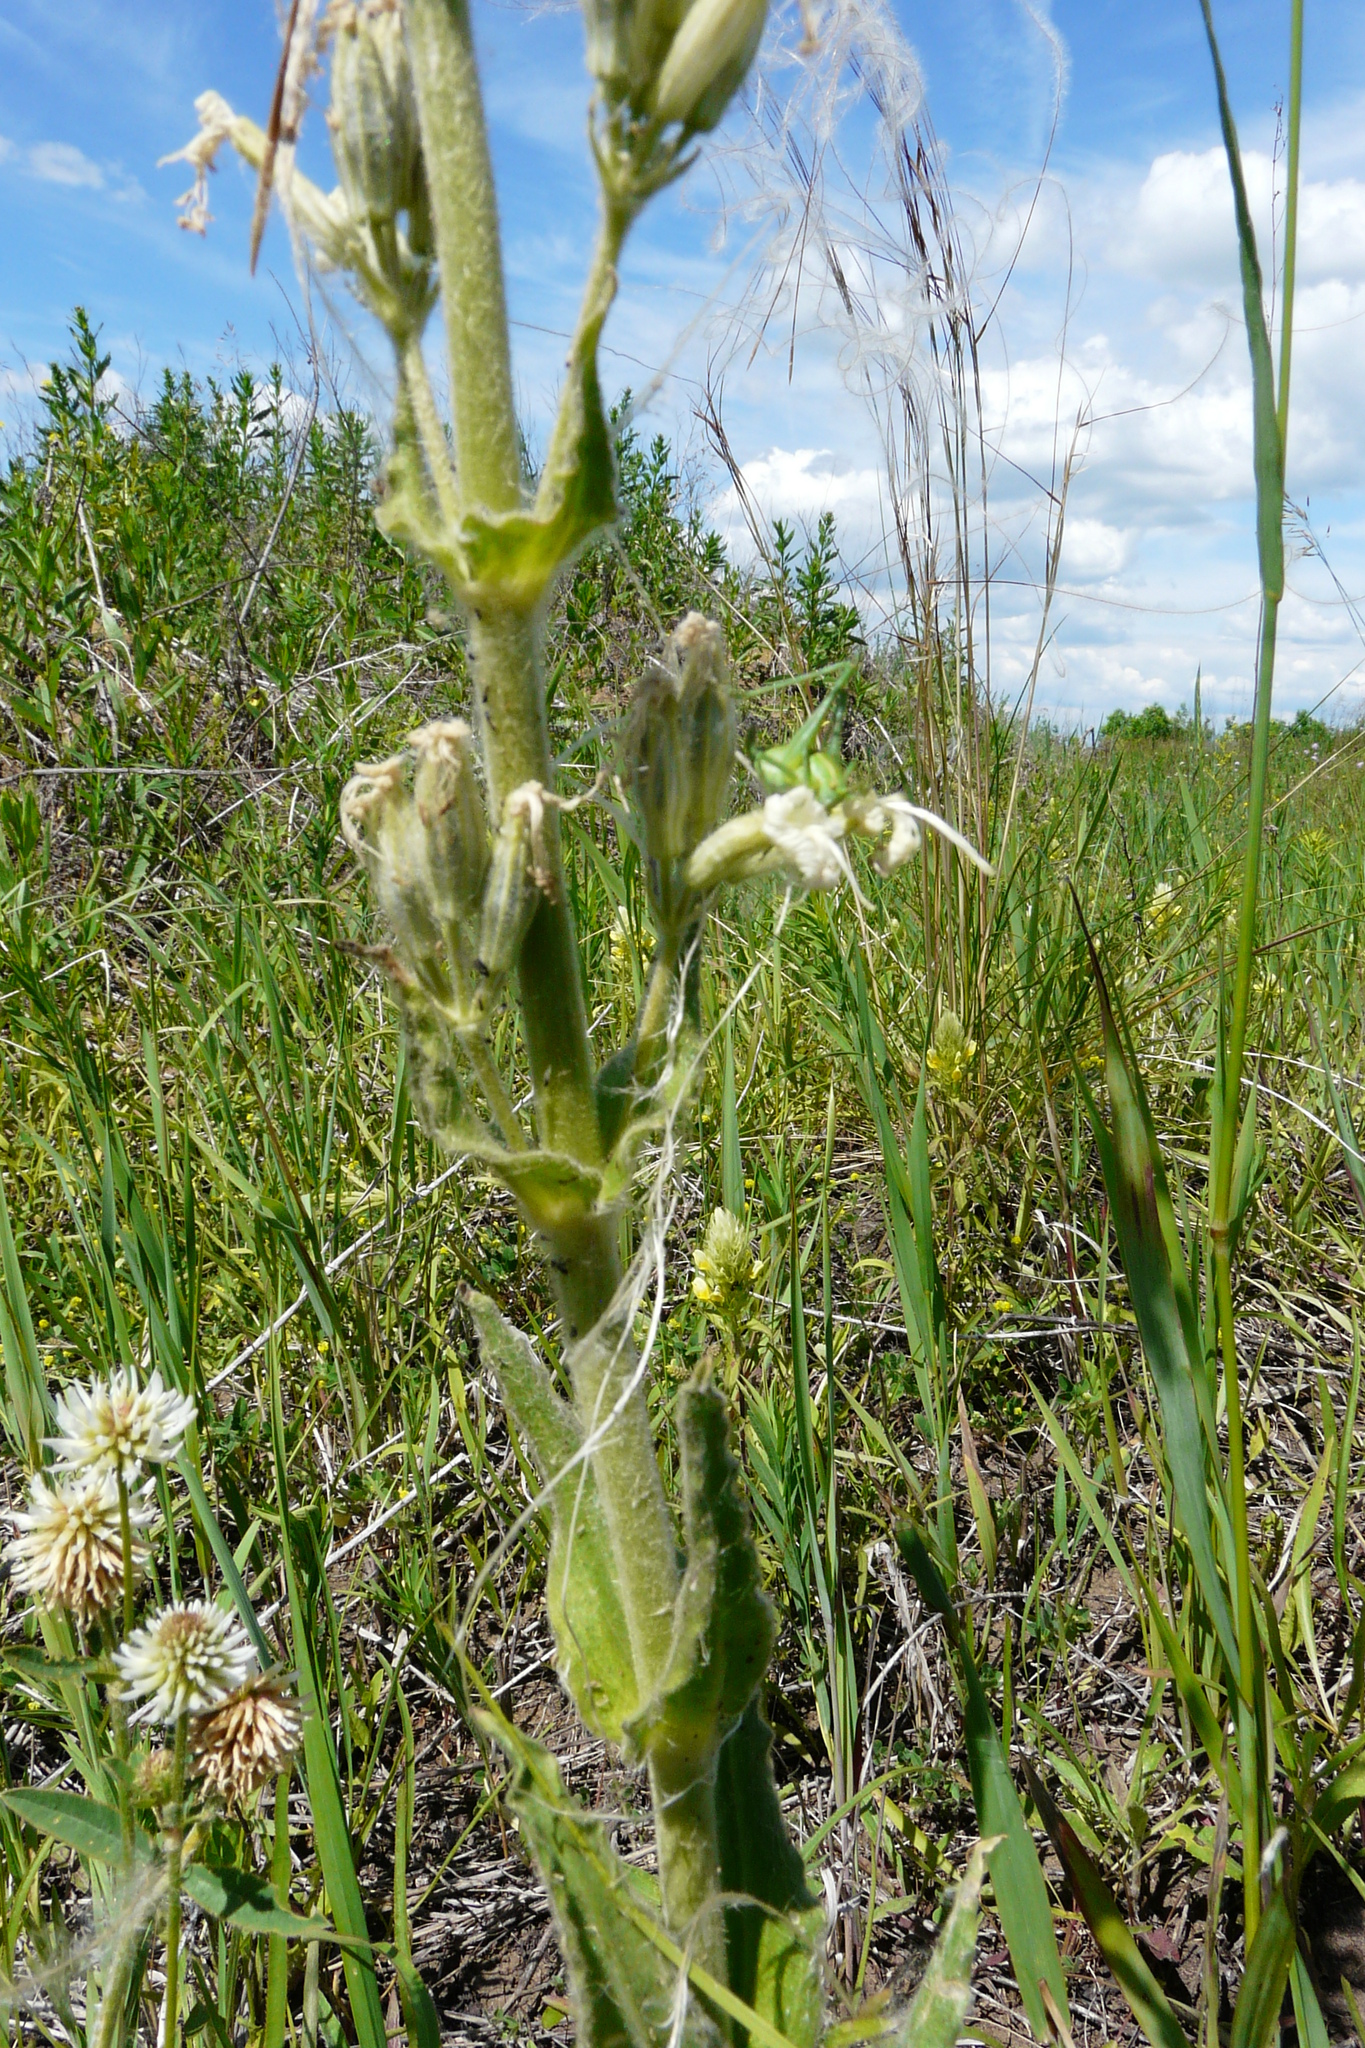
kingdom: Plantae
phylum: Tracheophyta
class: Magnoliopsida
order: Caryophyllales
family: Caryophyllaceae
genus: Silene
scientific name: Silene viscosa
